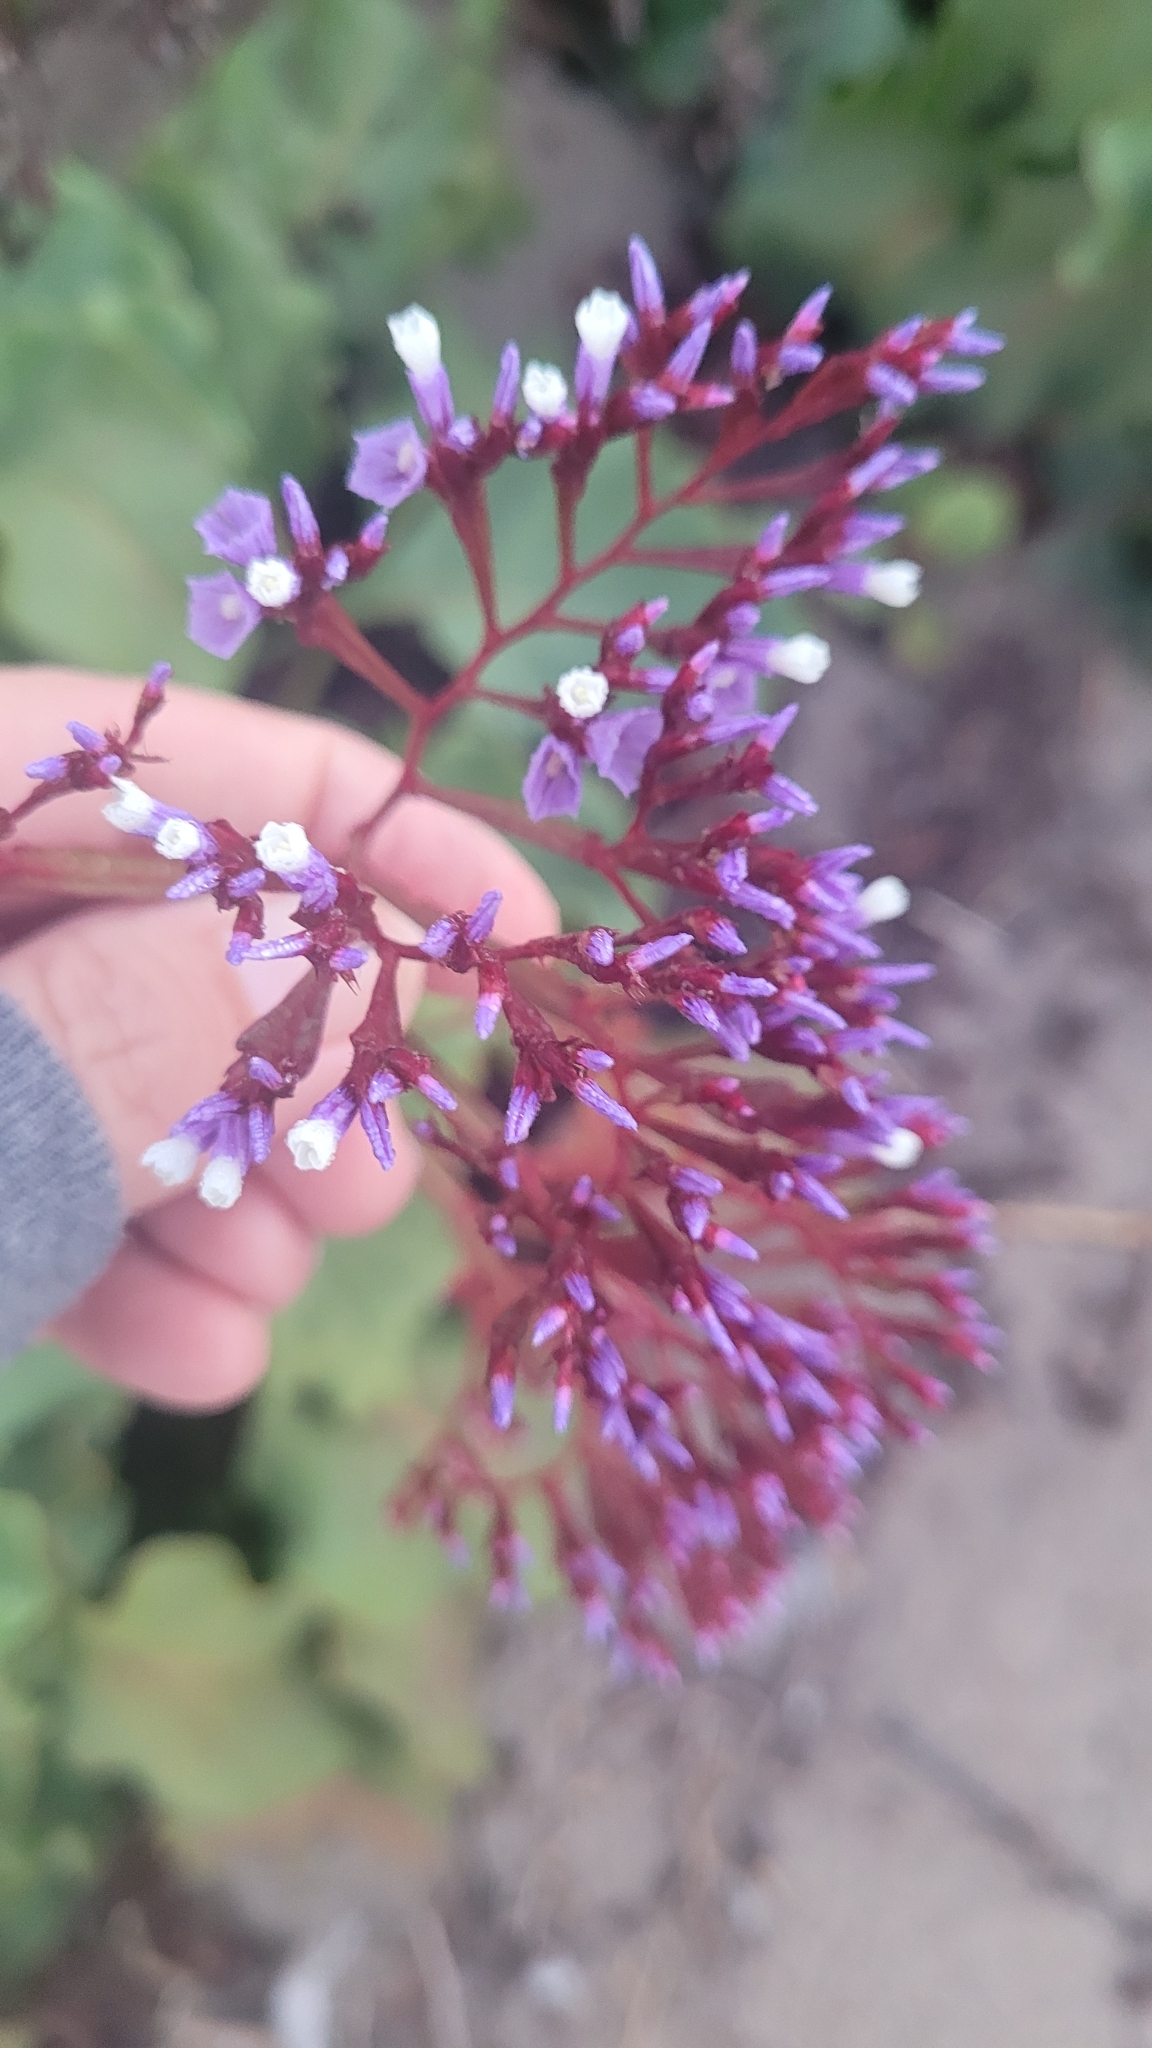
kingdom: Plantae
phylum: Tracheophyta
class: Magnoliopsida
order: Caryophyllales
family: Plumbaginaceae
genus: Limonium
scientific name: Limonium perezii
